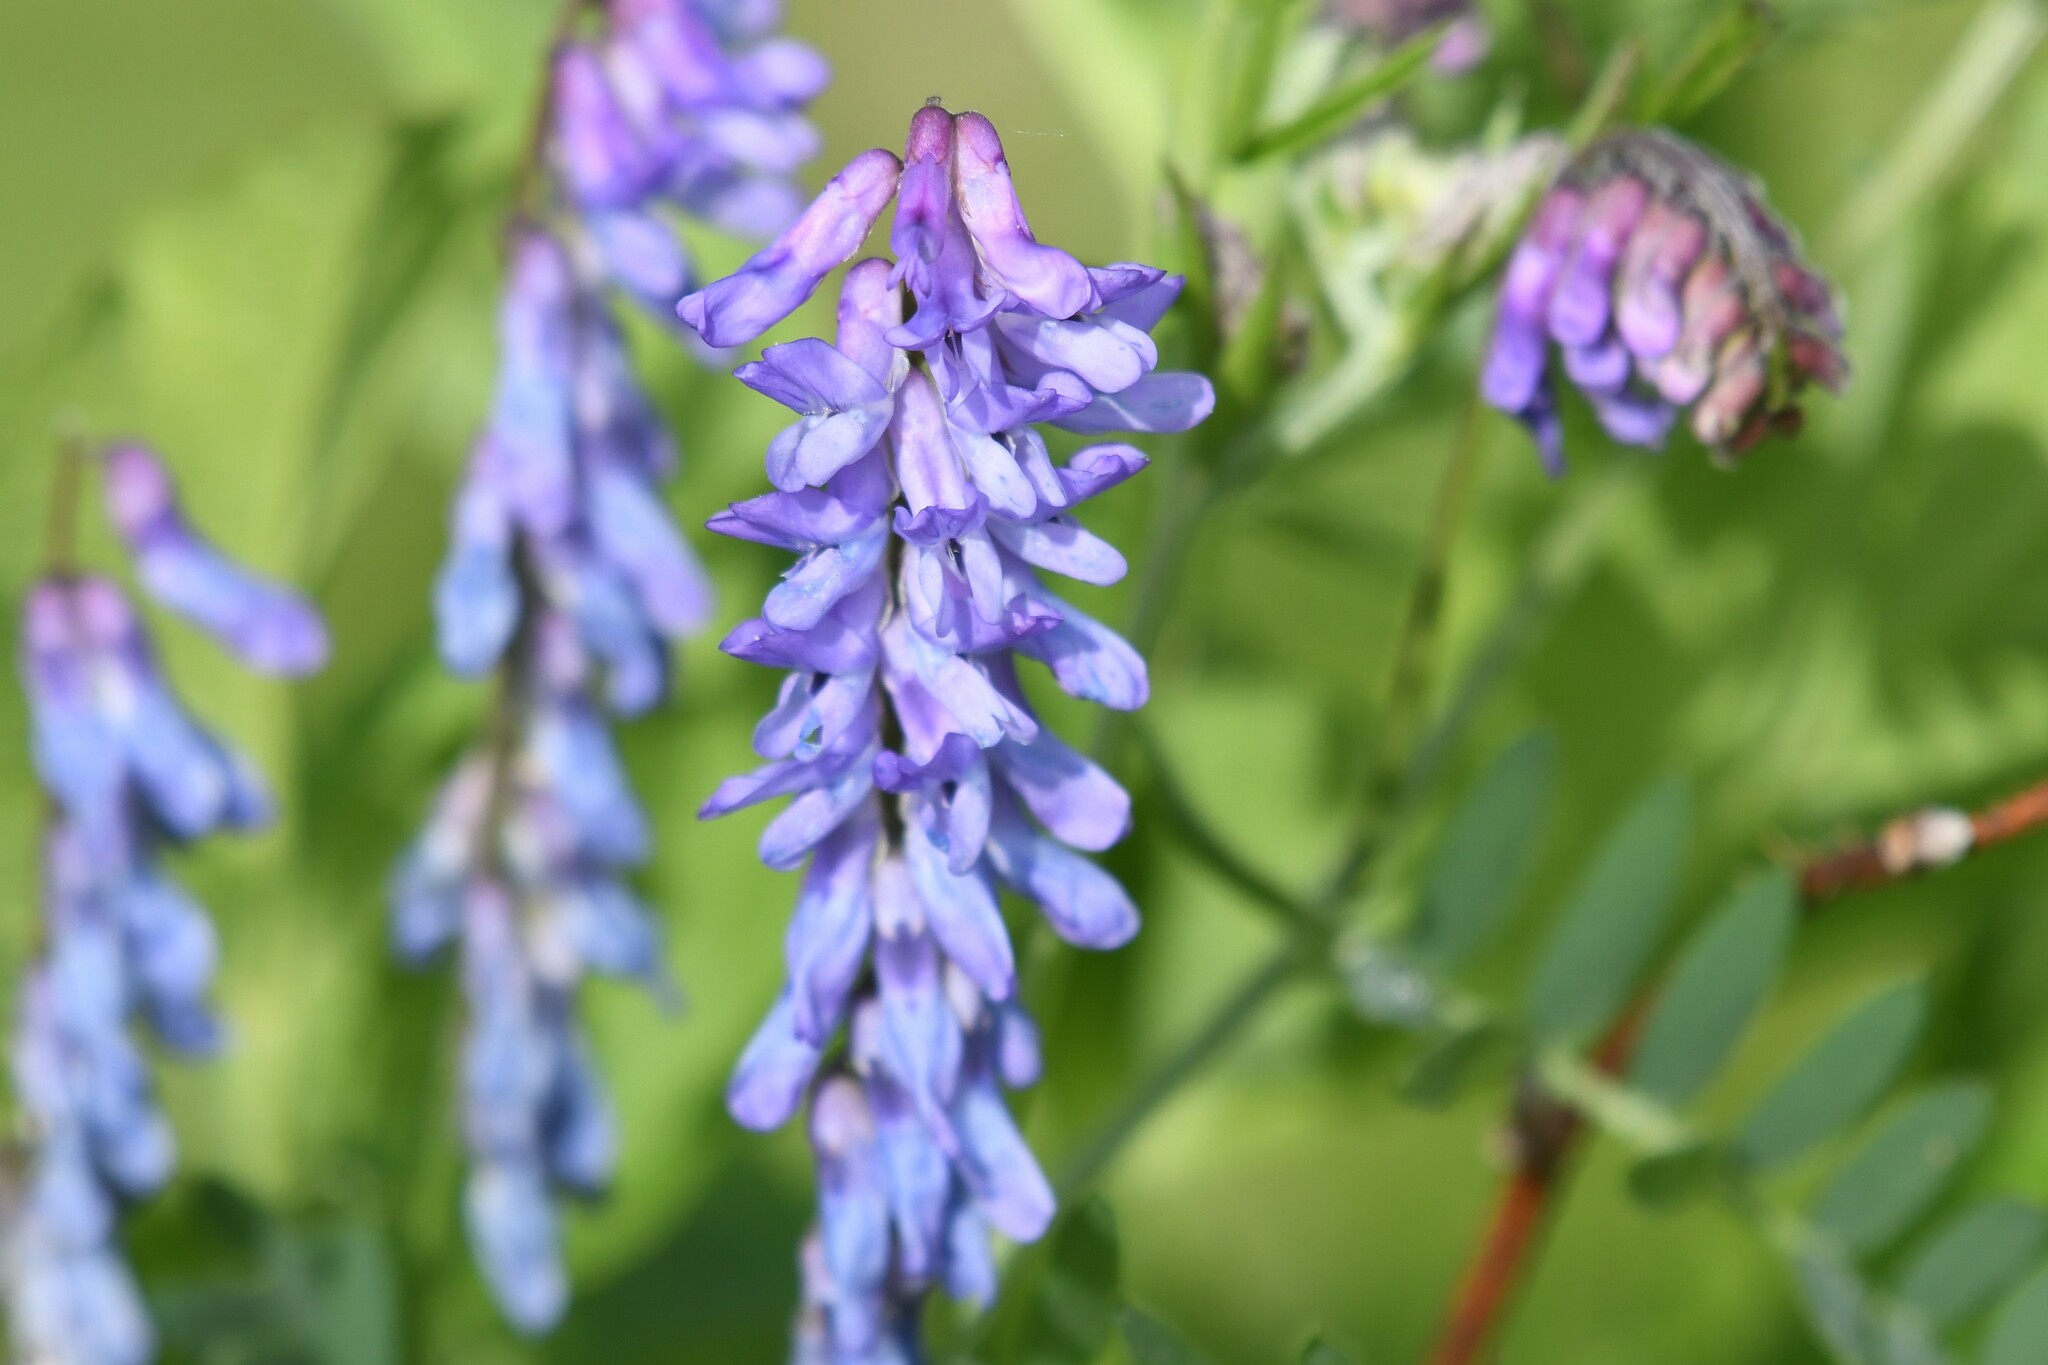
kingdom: Plantae
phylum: Tracheophyta
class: Magnoliopsida
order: Fabales
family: Fabaceae
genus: Vicia
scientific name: Vicia cracca
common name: Bird vetch
